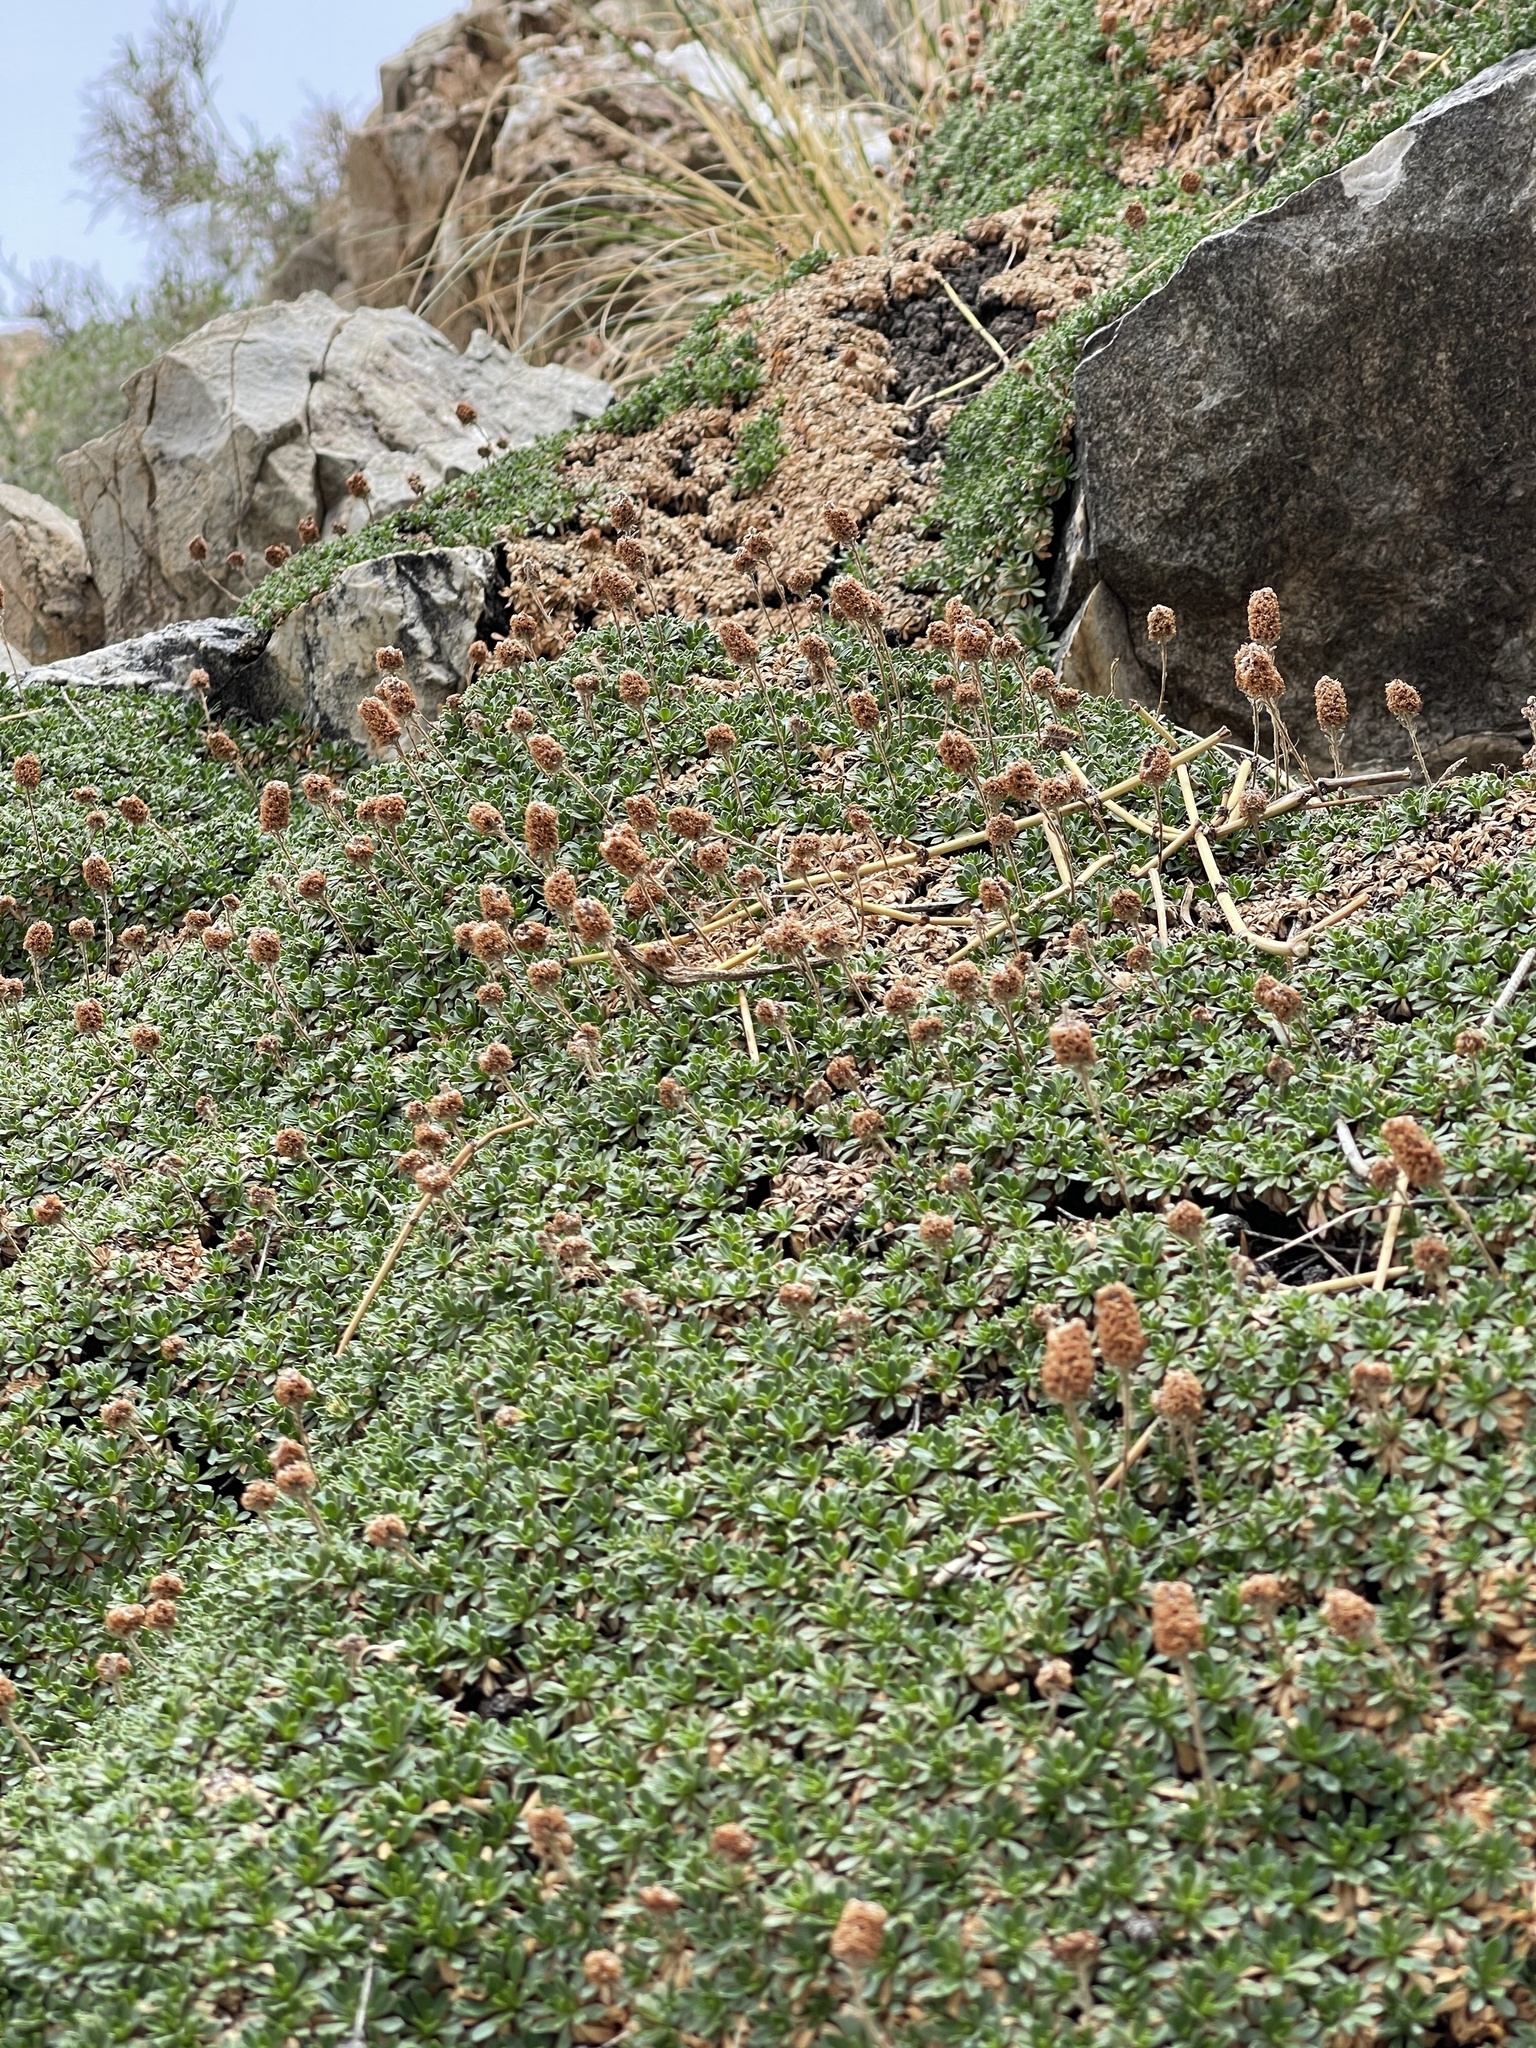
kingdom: Plantae
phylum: Tracheophyta
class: Magnoliopsida
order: Rosales
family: Rosaceae
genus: Petrophytum
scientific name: Petrophytum caespitosum
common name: Mat rockspirea
